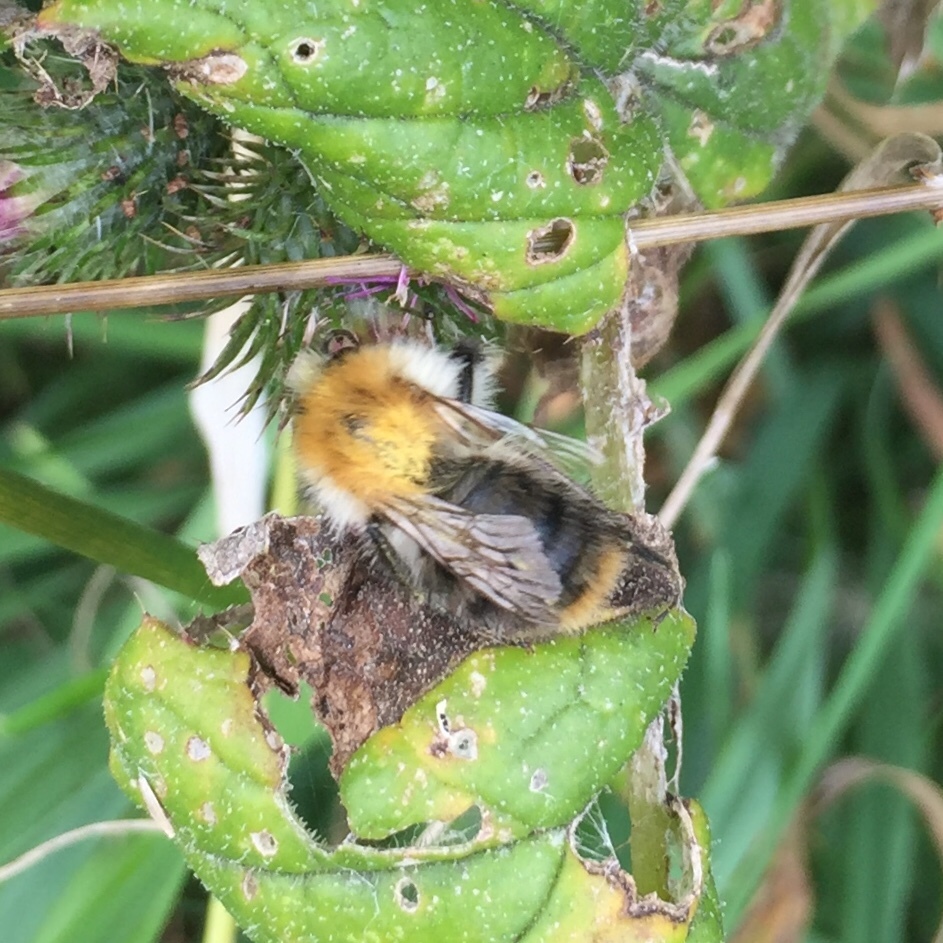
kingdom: Animalia
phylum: Arthropoda
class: Insecta
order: Hymenoptera
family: Apidae
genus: Bombus
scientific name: Bombus pascuorum
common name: Common carder bee
